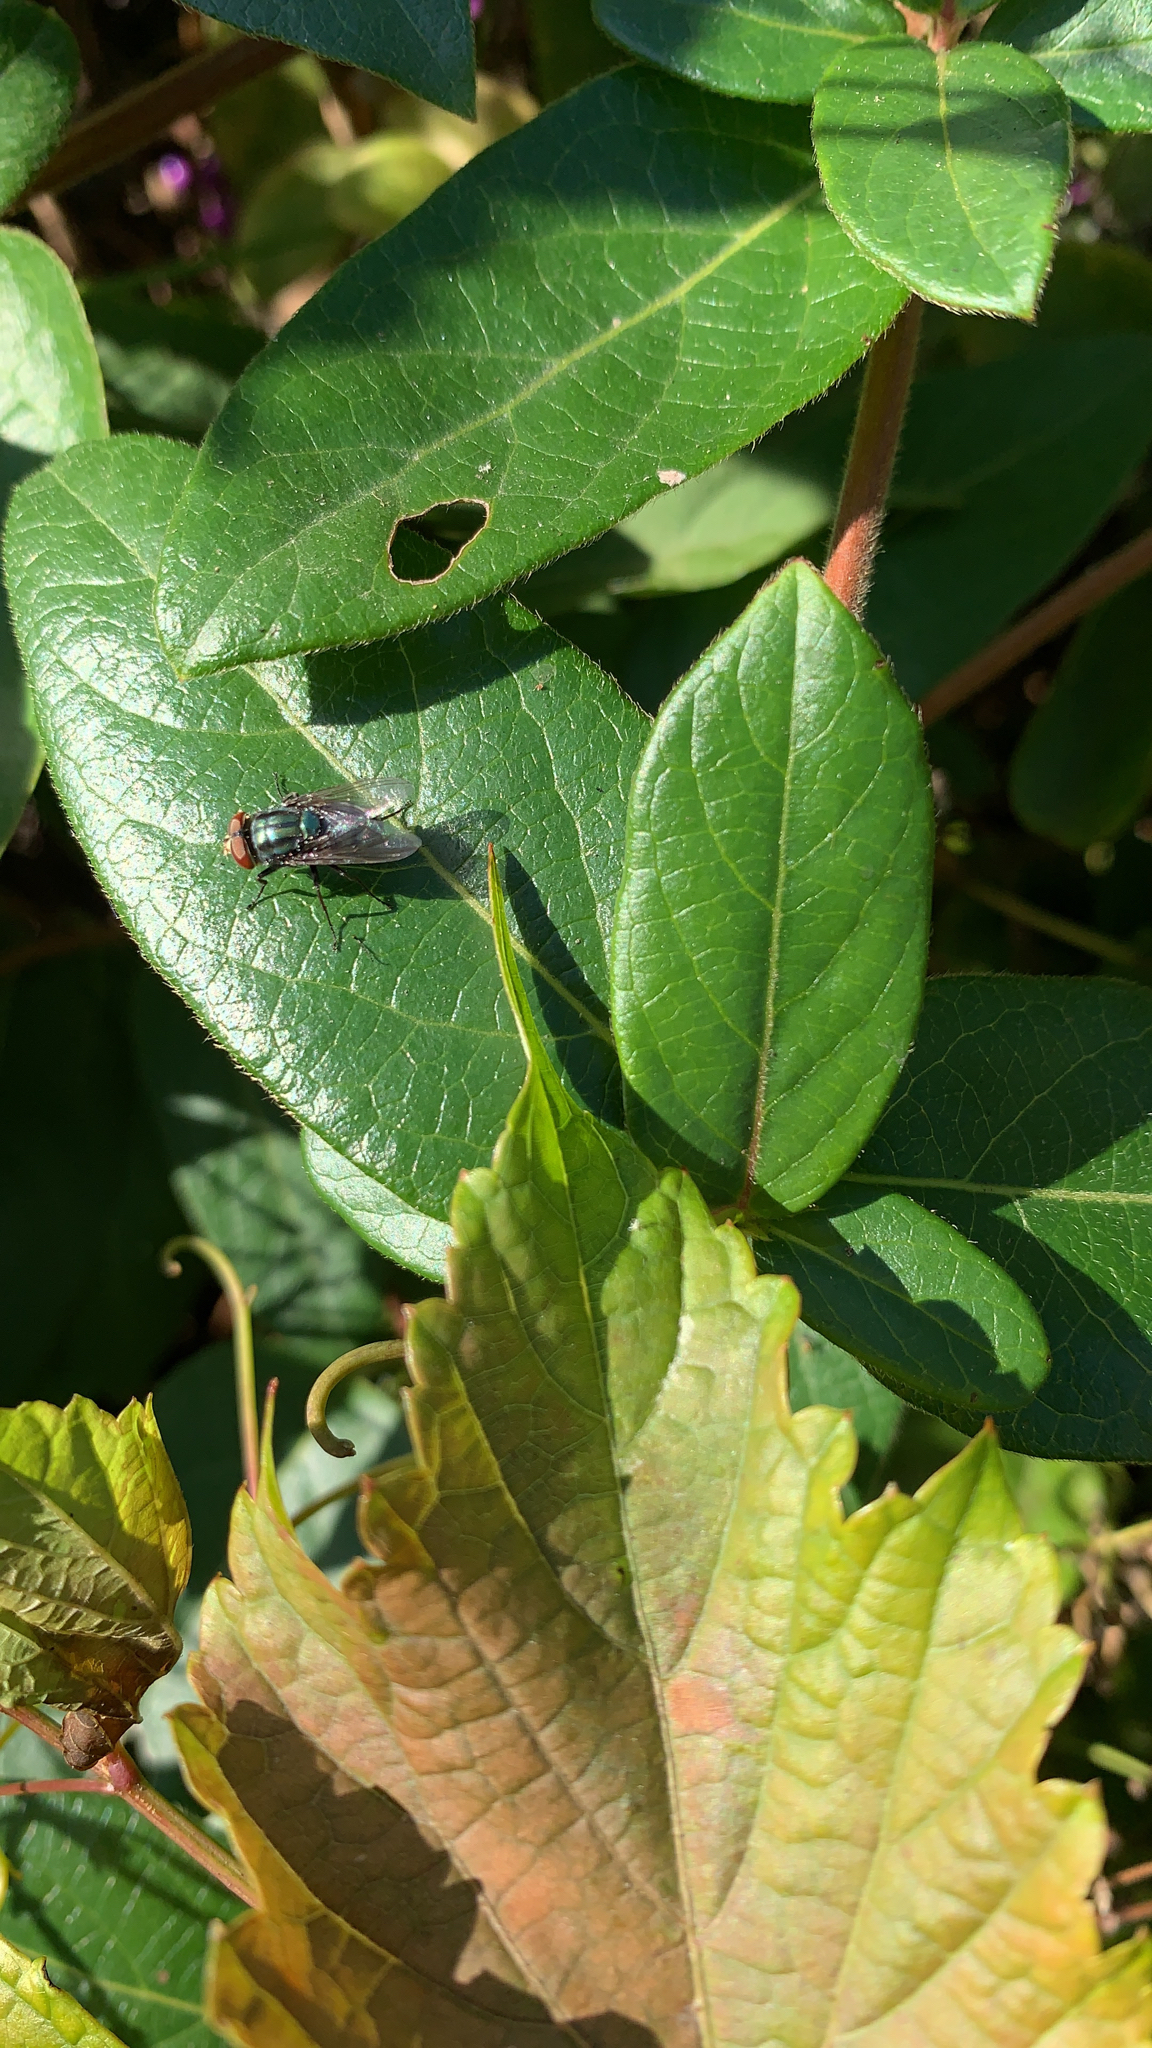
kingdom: Animalia
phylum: Arthropoda
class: Insecta
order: Diptera
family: Calliphoridae
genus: Cochliomyia
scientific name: Cochliomyia macellaria
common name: Secondary screwworm
